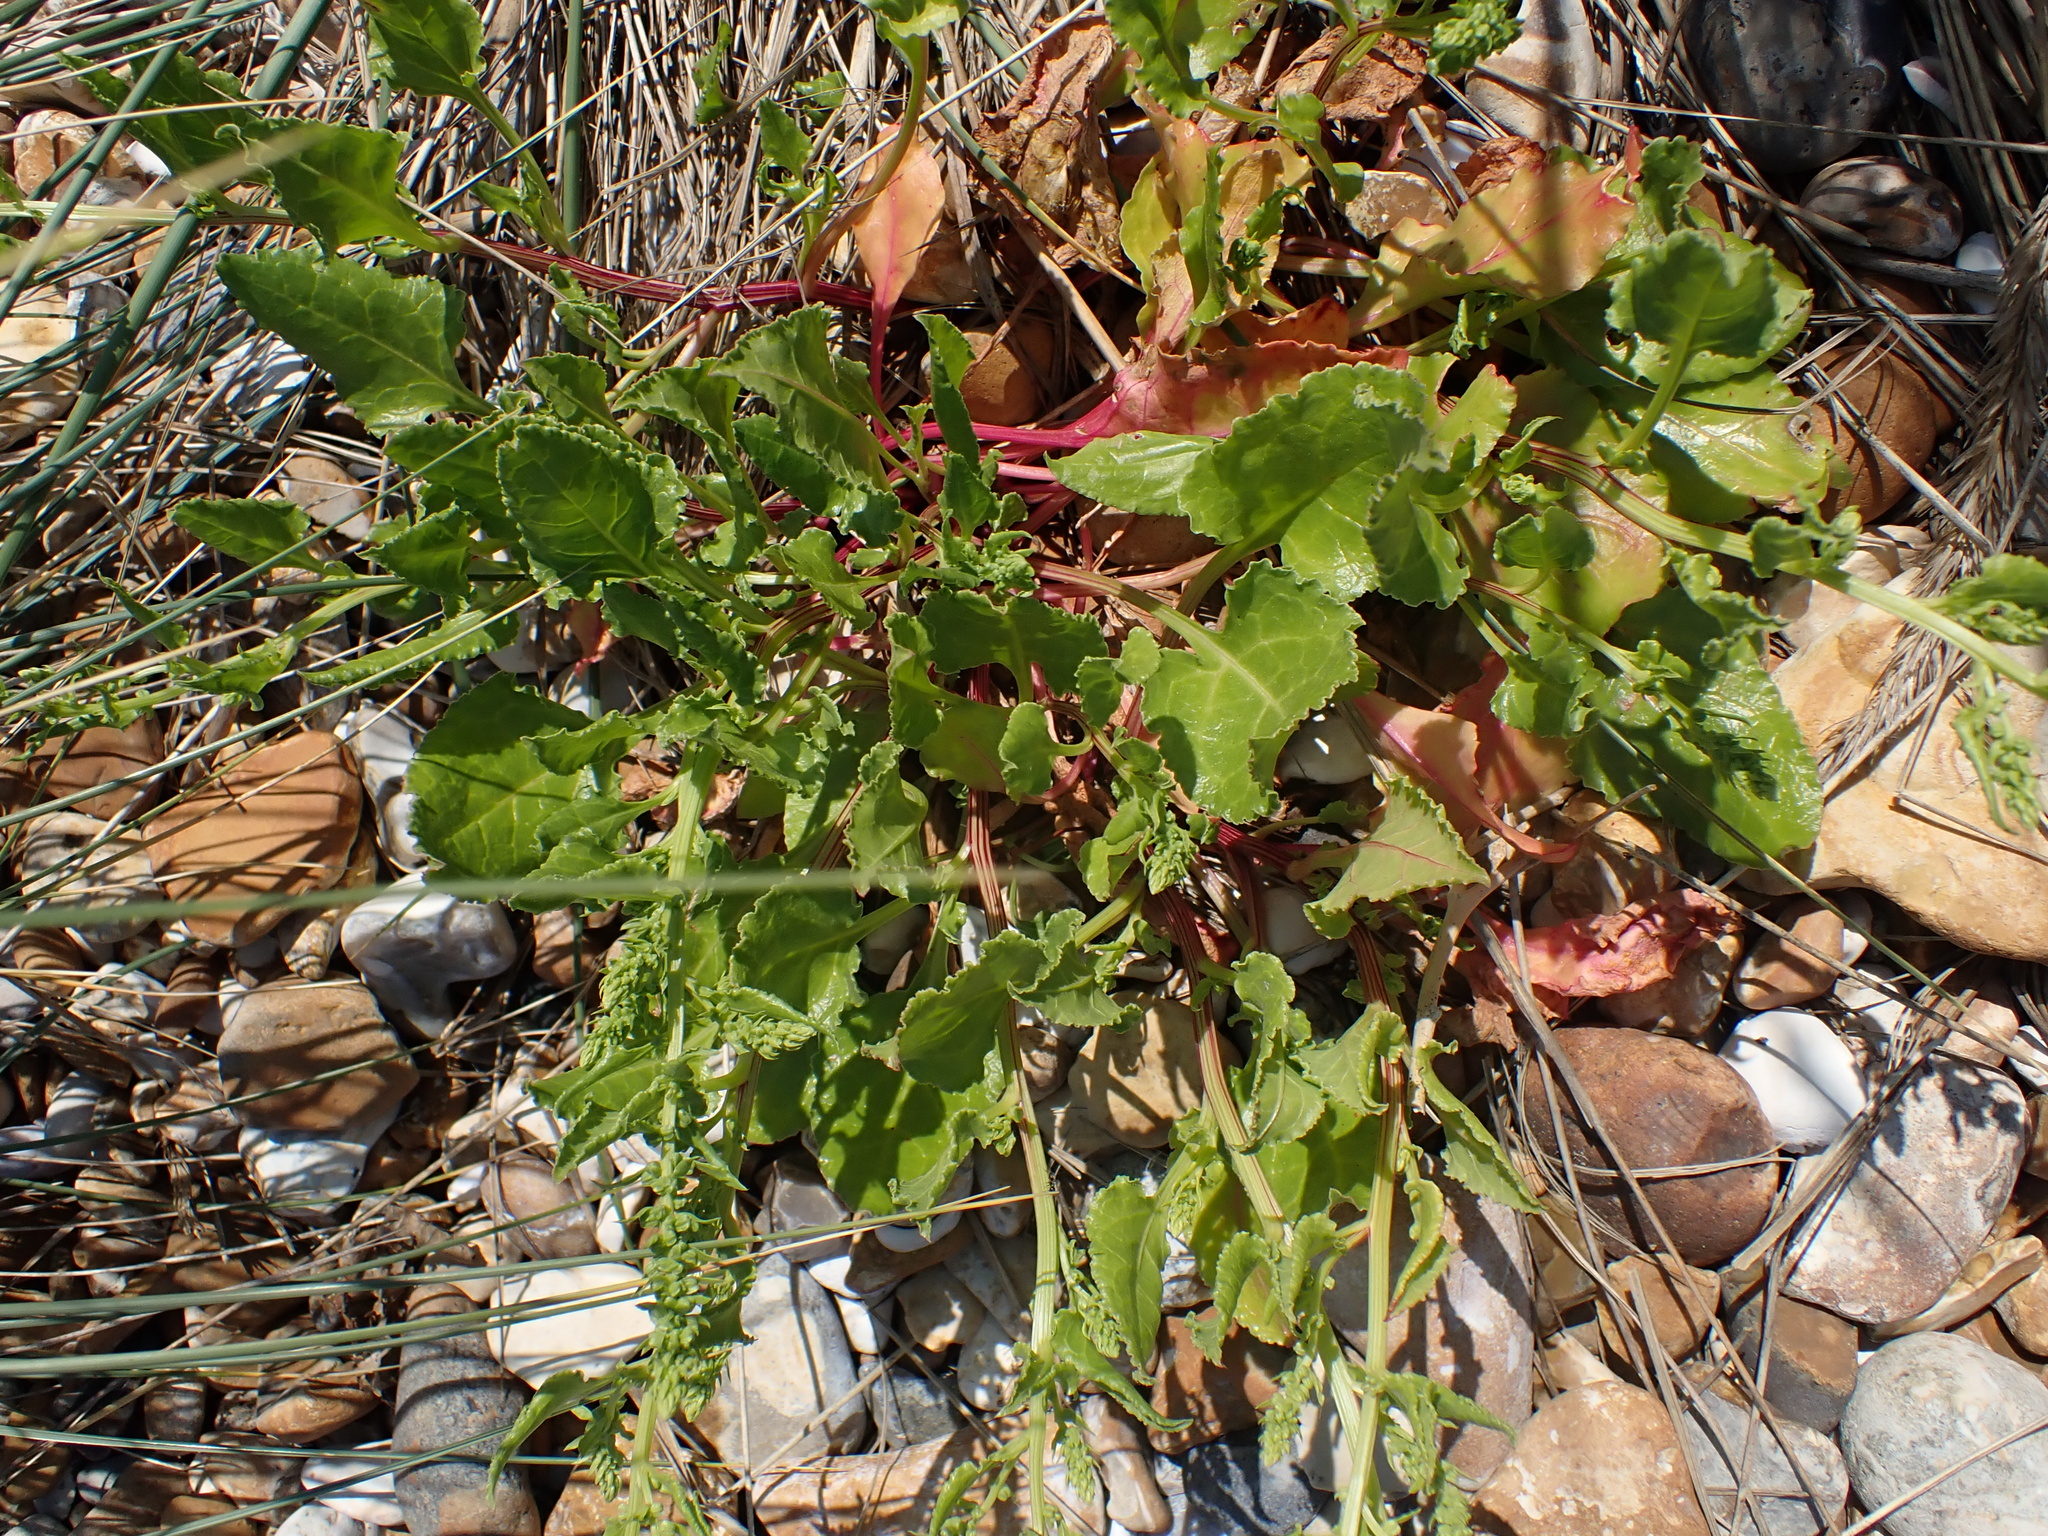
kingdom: Plantae
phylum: Tracheophyta
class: Magnoliopsida
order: Caryophyllales
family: Amaranthaceae
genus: Beta
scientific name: Beta vulgaris
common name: Beet
